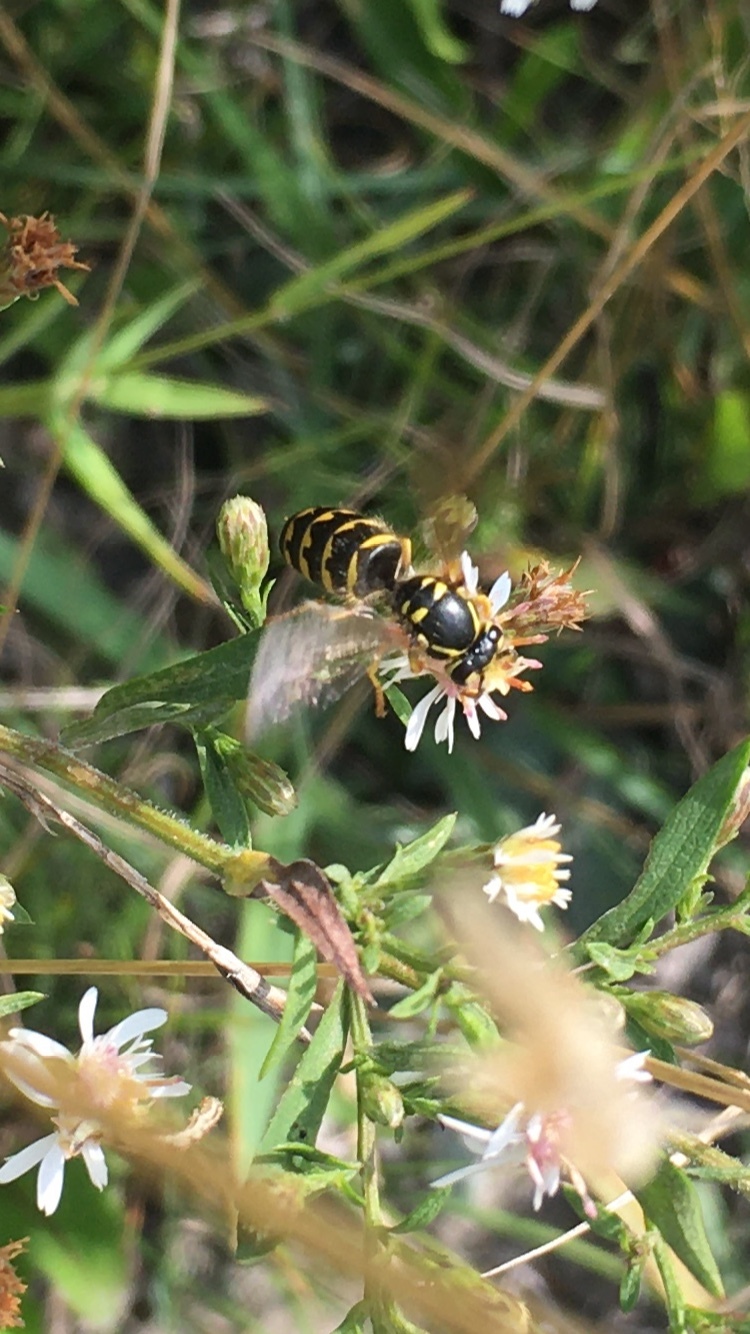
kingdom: Animalia
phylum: Arthropoda
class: Insecta
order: Hymenoptera
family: Vespidae
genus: Dolichovespula
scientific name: Dolichovespula arenaria
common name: Aerial yellowjacket
